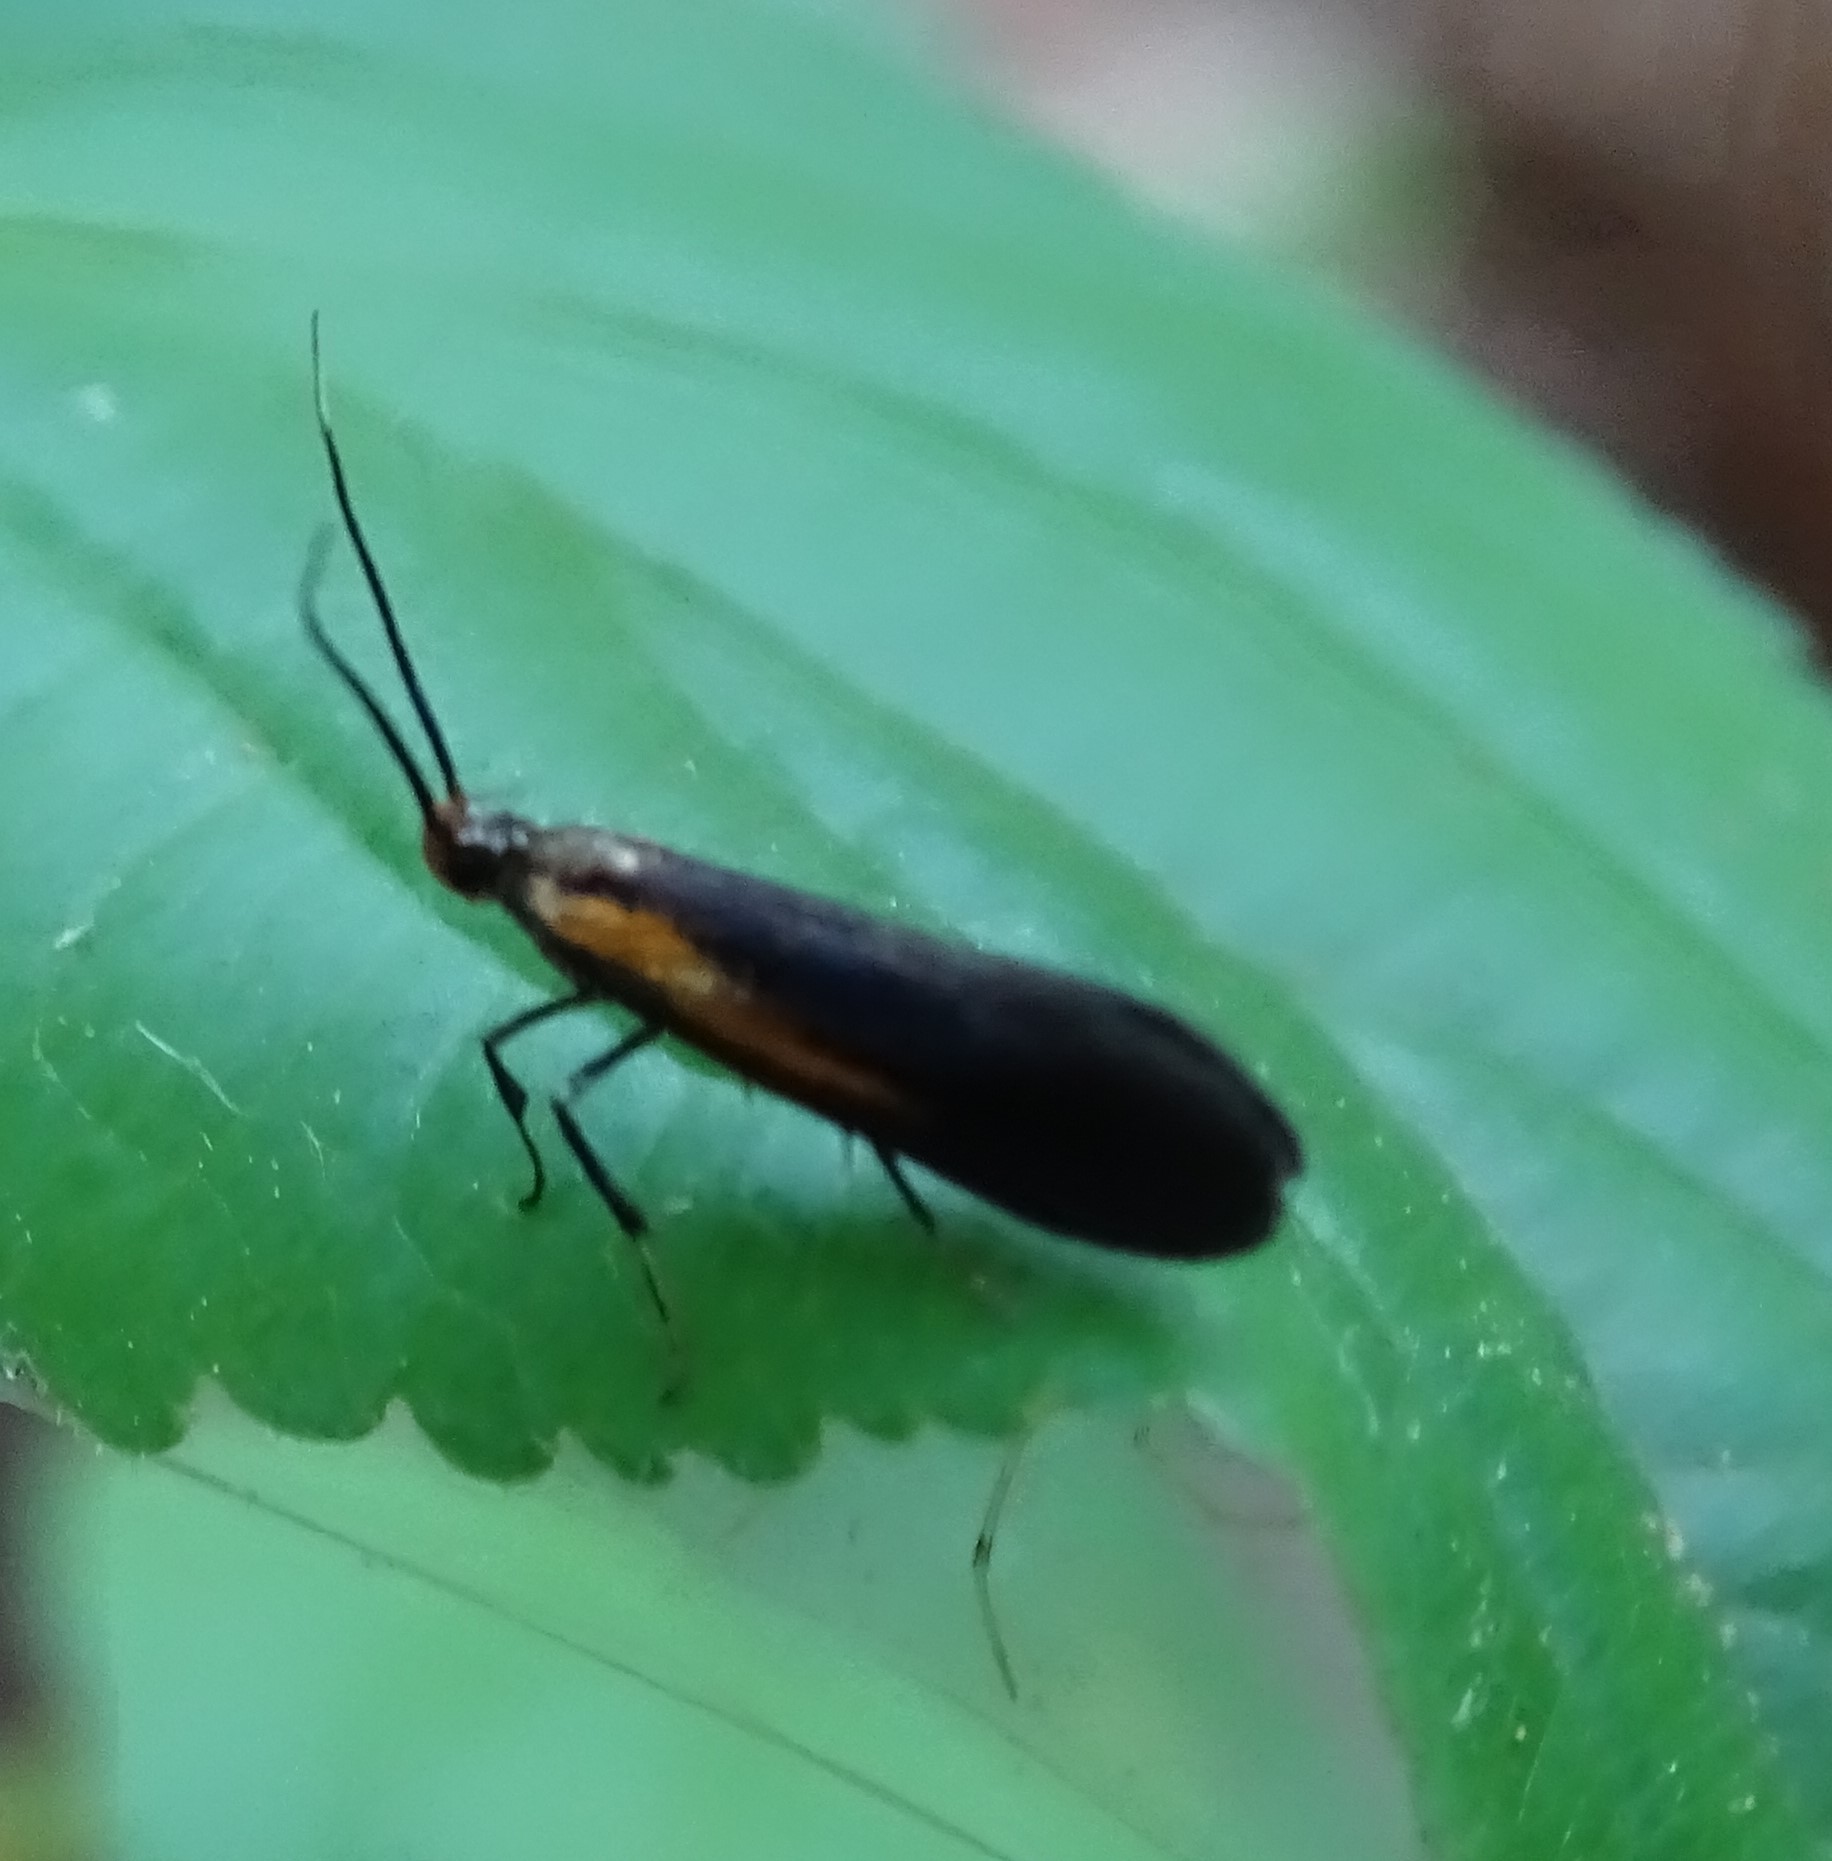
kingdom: Animalia
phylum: Arthropoda
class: Insecta
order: Lepidoptera
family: Oecophoridae
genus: Mathildana
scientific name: Mathildana newmanella
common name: Newman's mathildana moth
